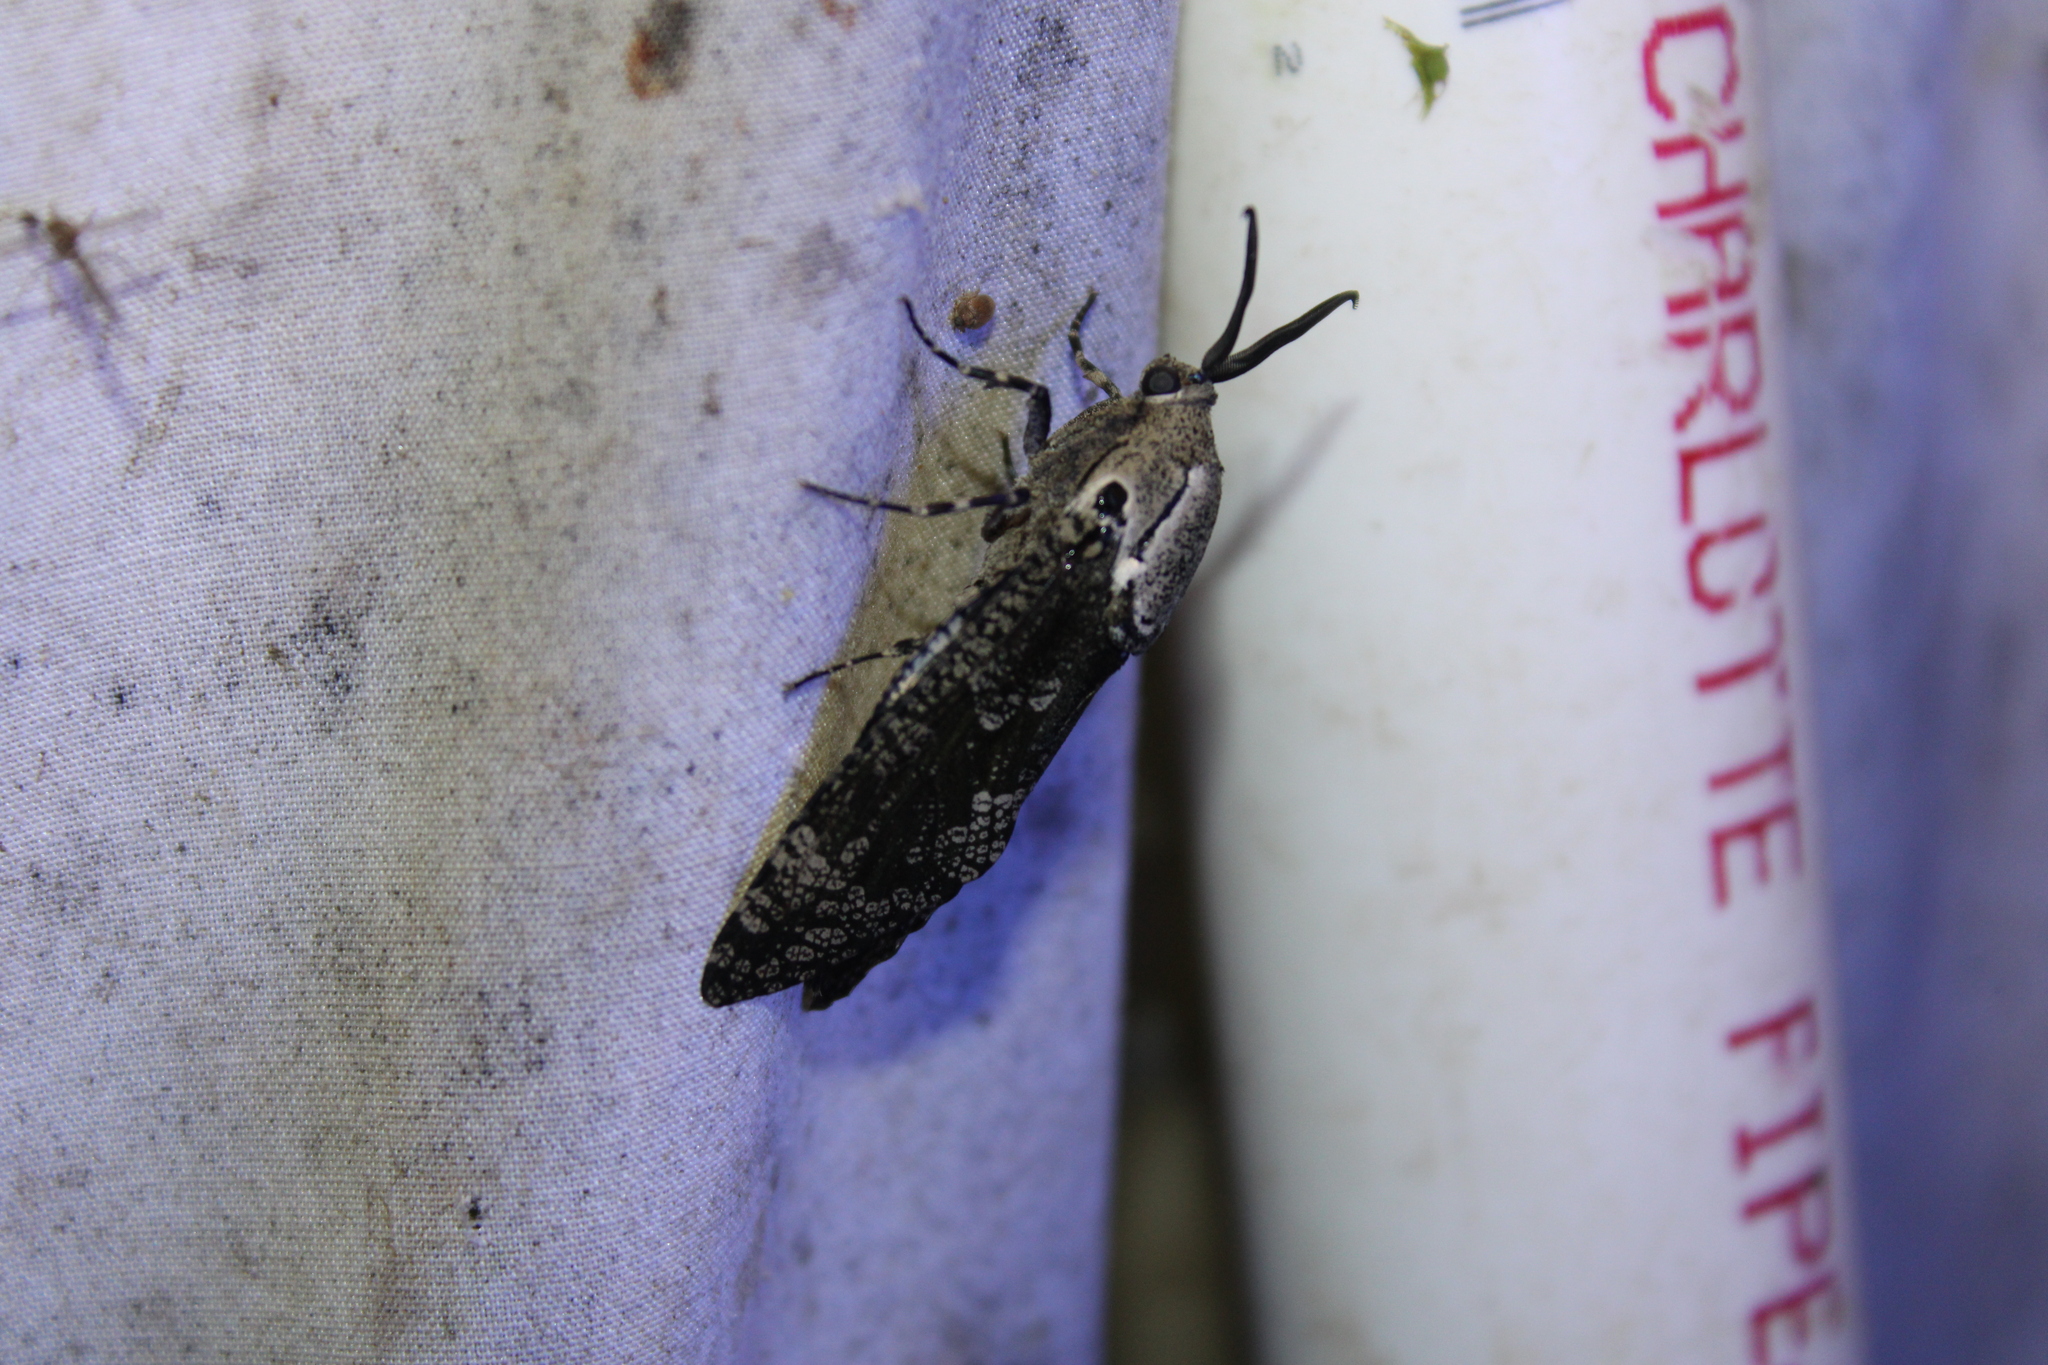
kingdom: Animalia
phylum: Arthropoda
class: Insecta
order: Lepidoptera
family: Cossidae
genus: Prionoxystus
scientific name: Prionoxystus robiniae
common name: Carpenterworm
